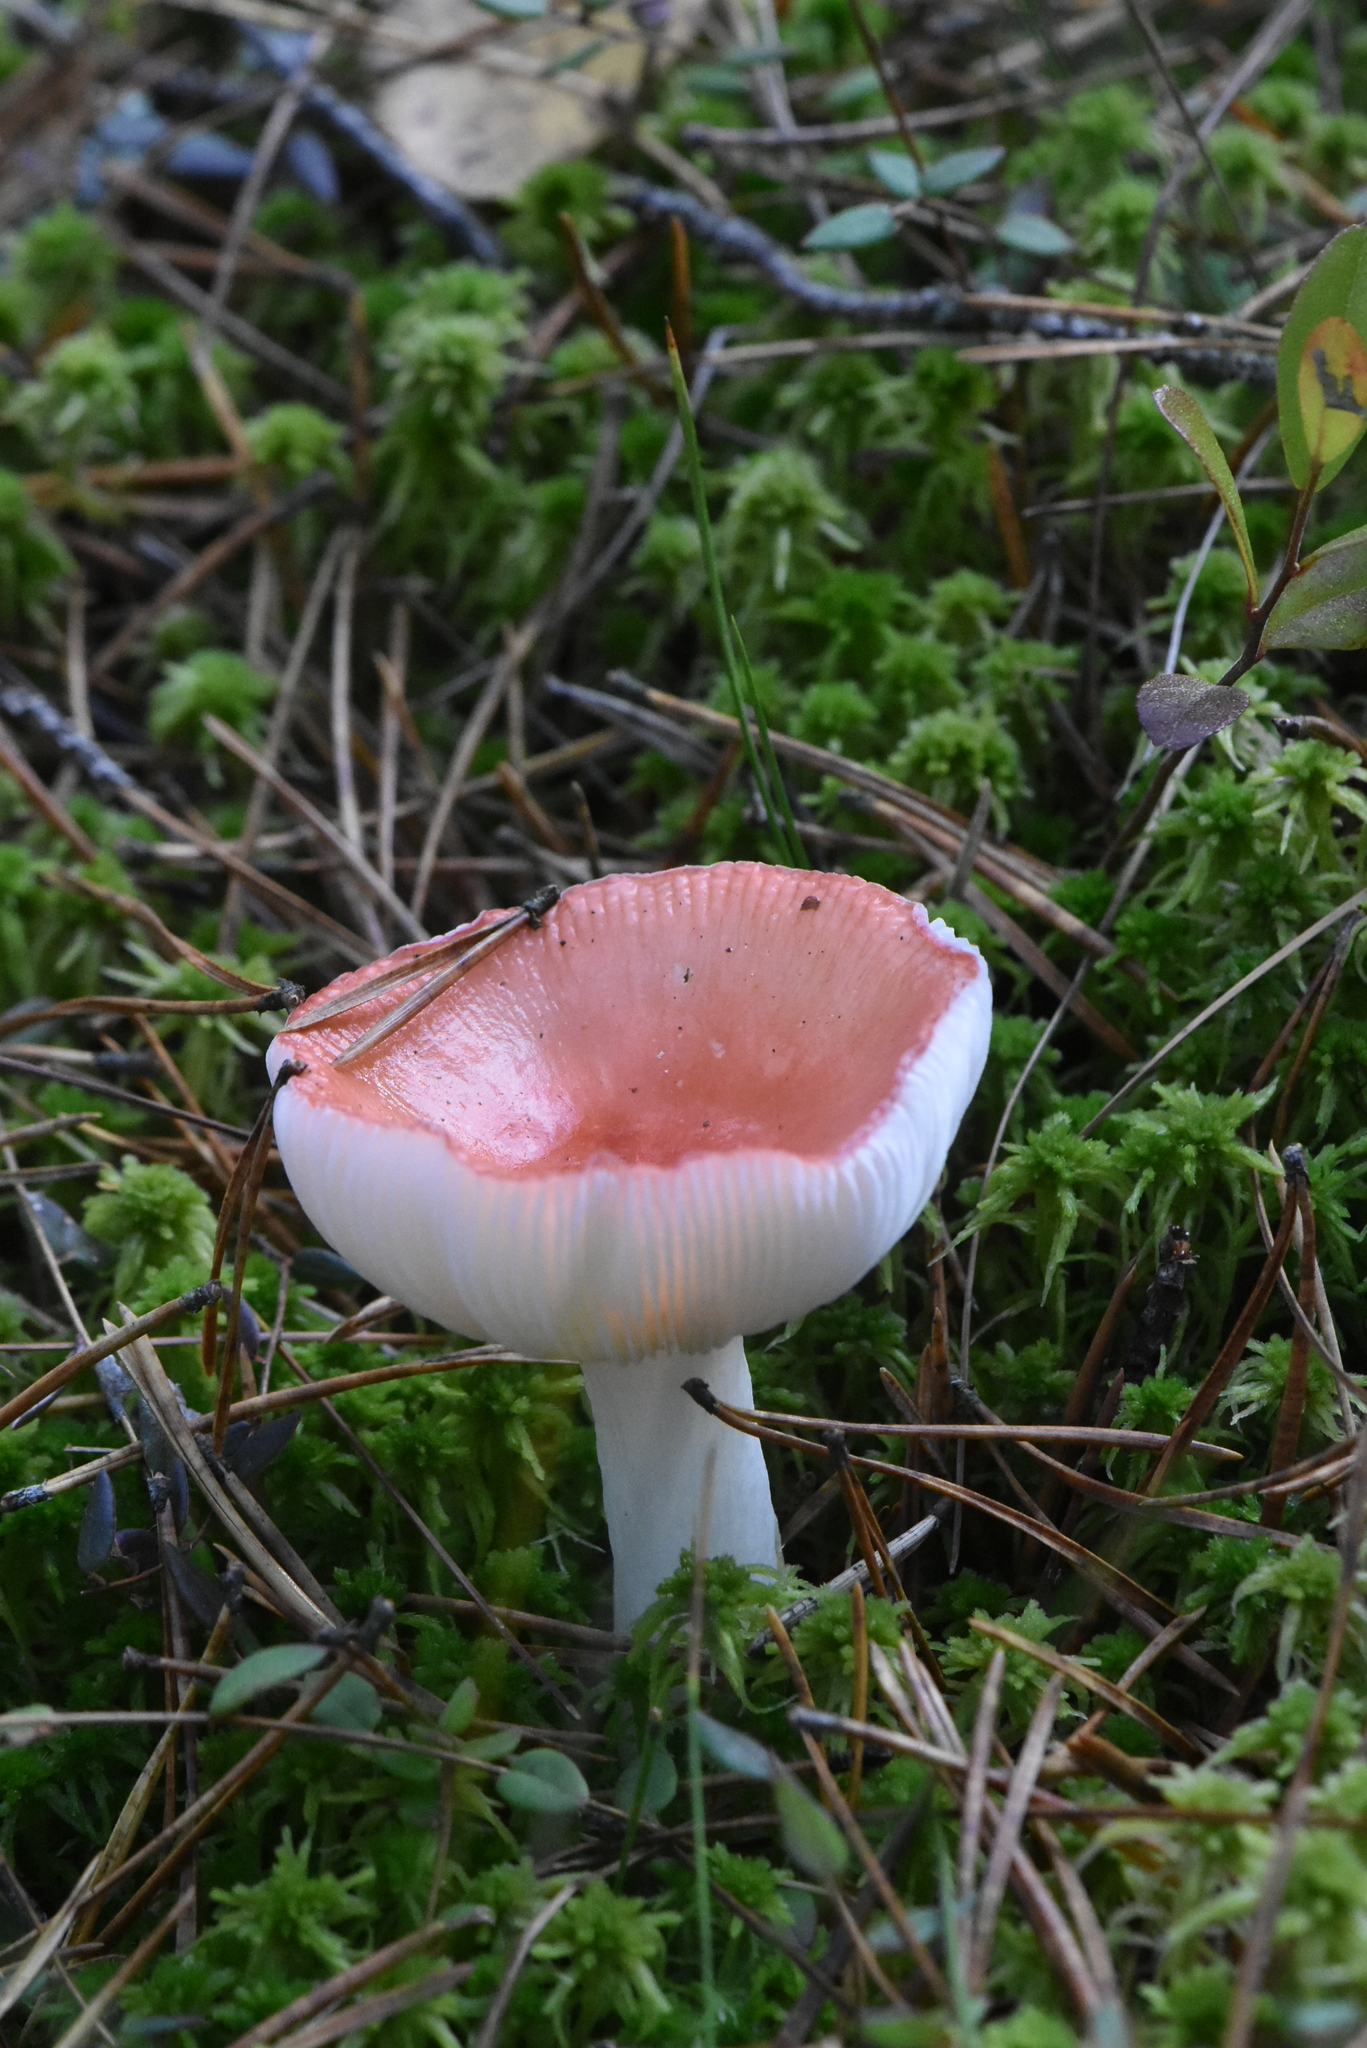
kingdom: Fungi
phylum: Basidiomycota
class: Agaricomycetes
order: Russulales
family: Russulaceae
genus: Russula
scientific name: Russula
